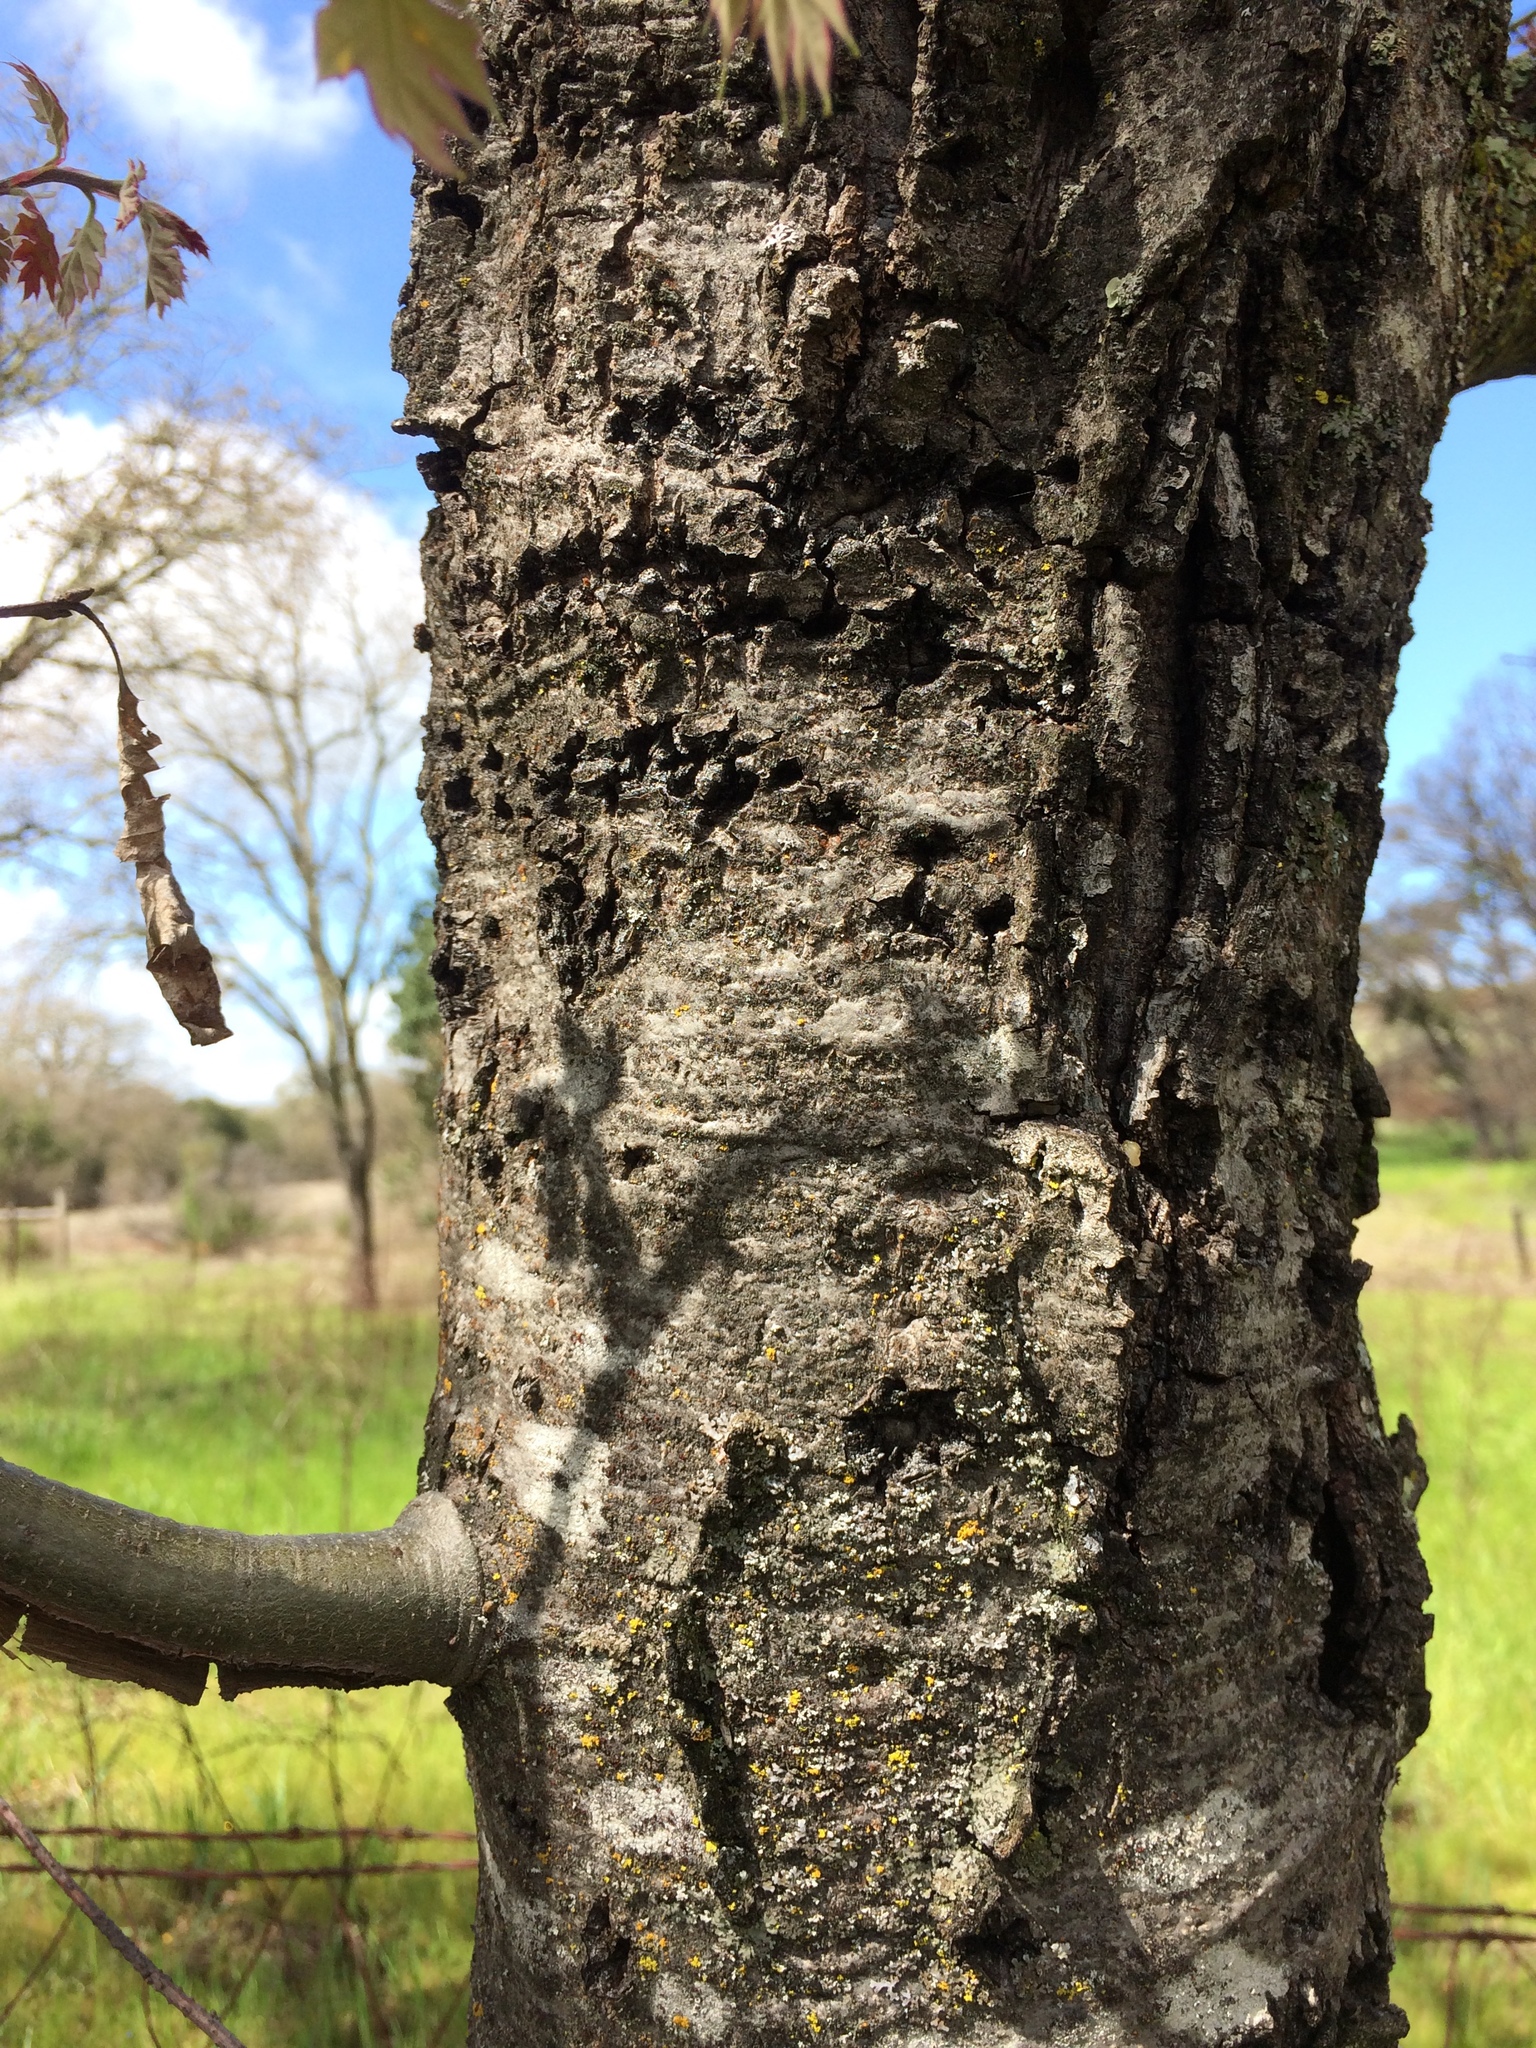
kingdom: Plantae
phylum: Tracheophyta
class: Magnoliopsida
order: Fagales
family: Fagaceae
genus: Quercus
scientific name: Quercus kelloggii
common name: California black oak
